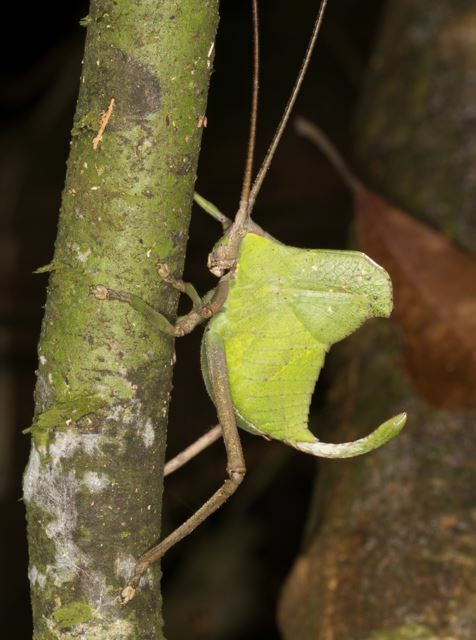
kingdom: Animalia
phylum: Arthropoda
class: Insecta
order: Orthoptera
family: Tettigoniidae
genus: Roxelana
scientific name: Roxelana crassicornis
